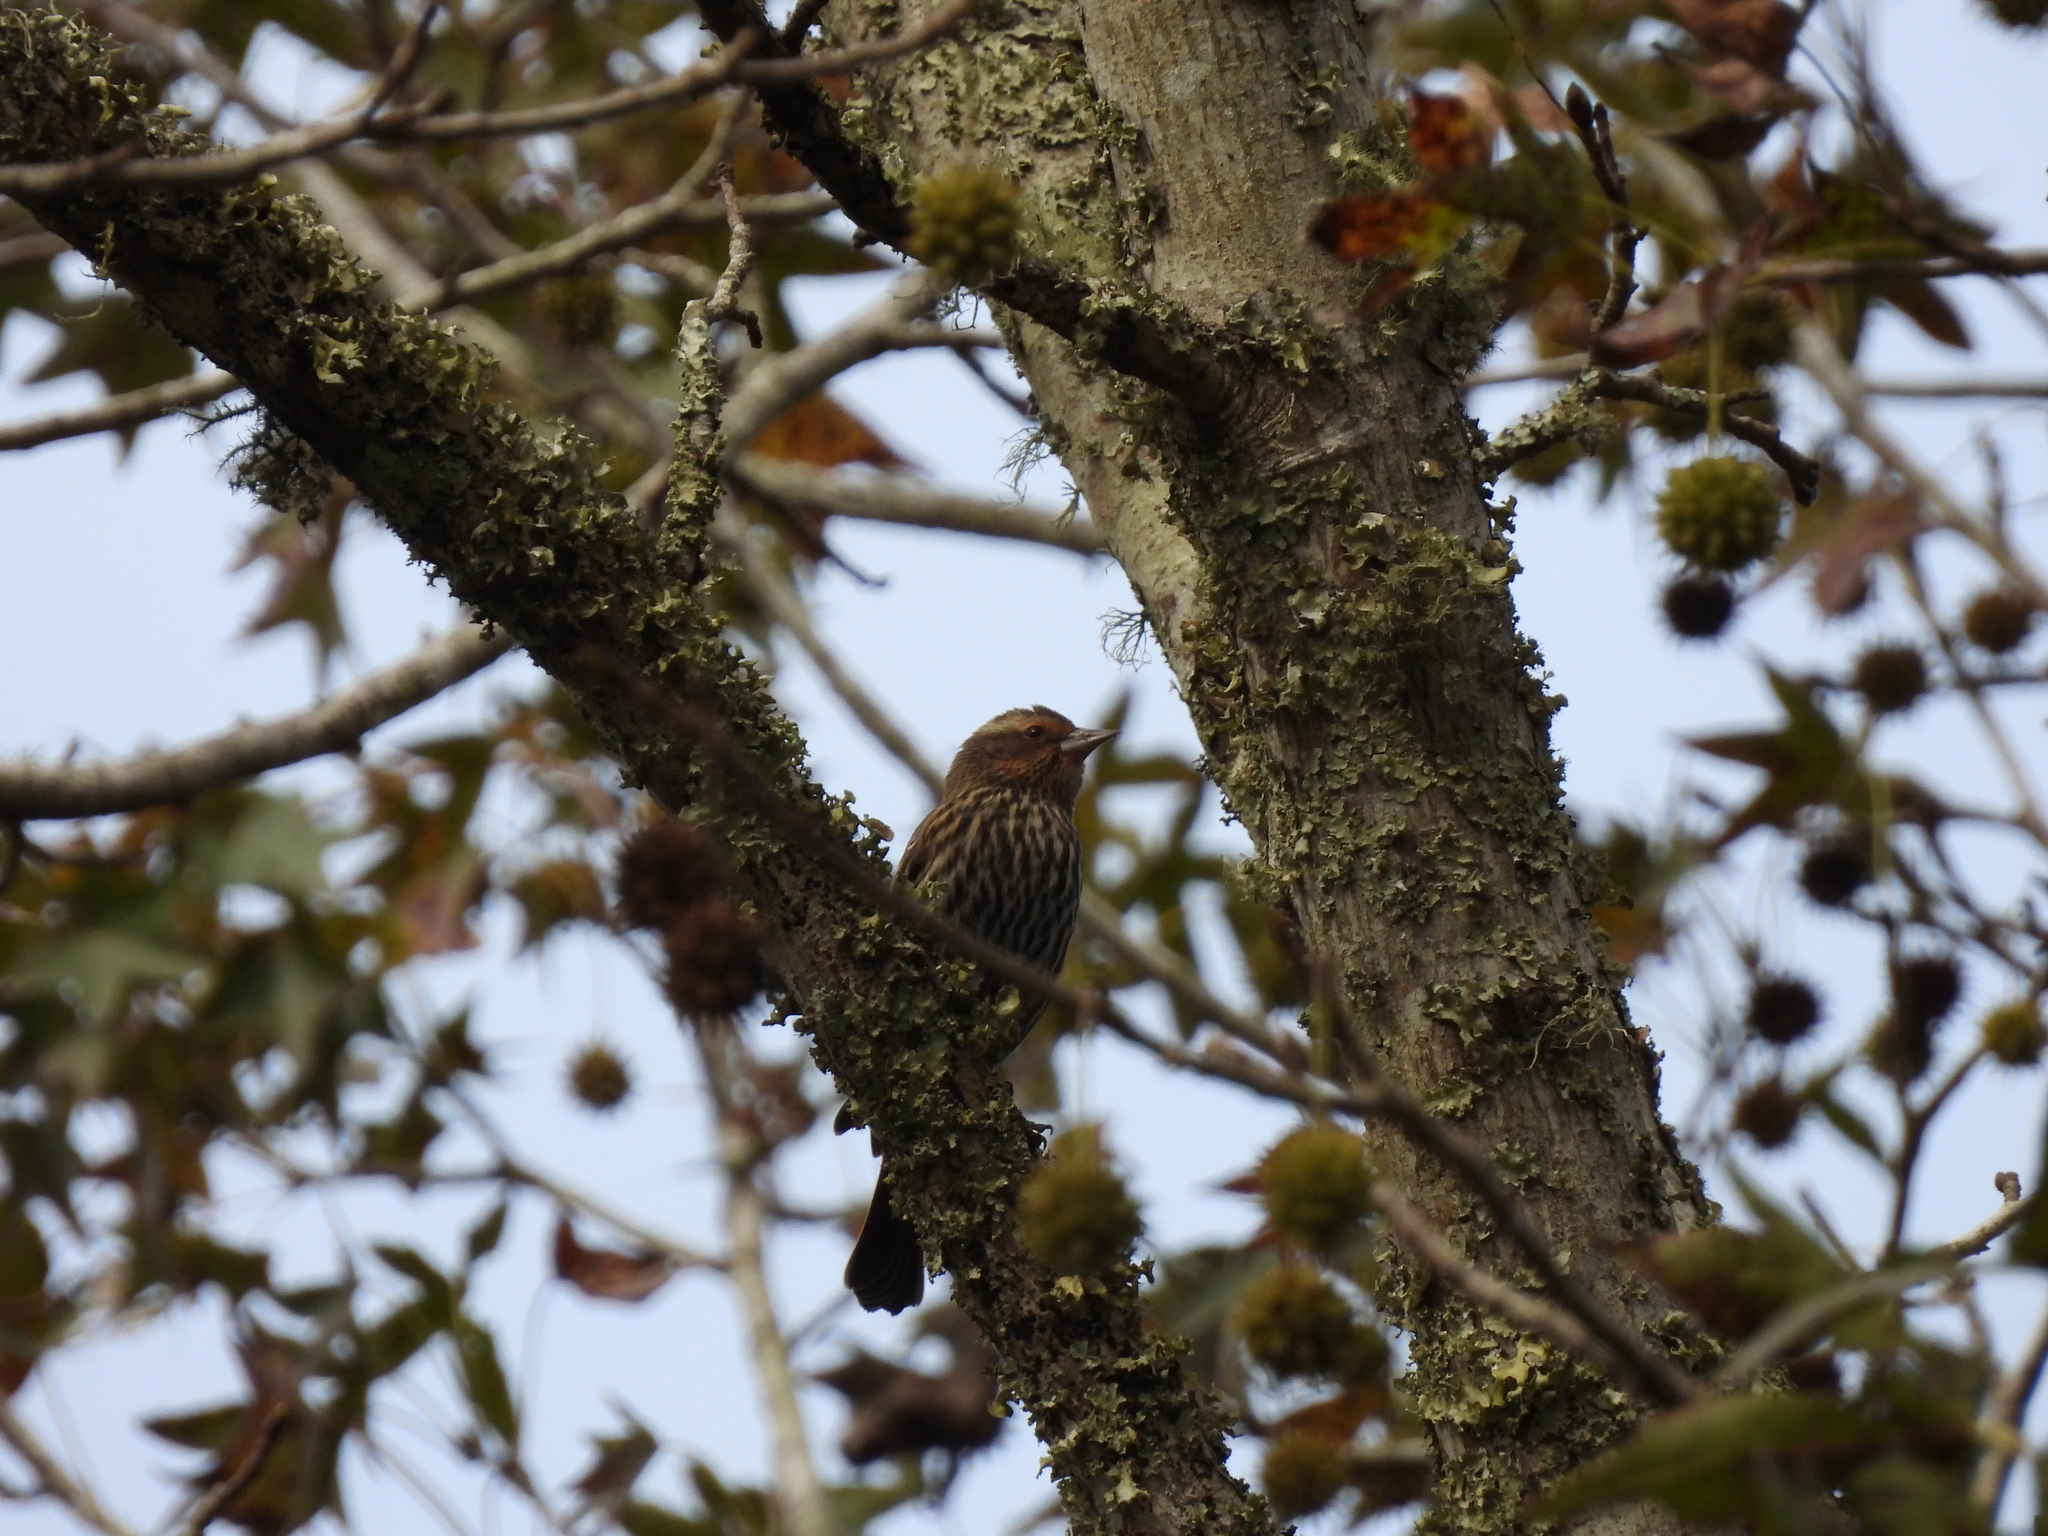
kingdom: Animalia
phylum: Chordata
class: Aves
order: Passeriformes
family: Icteridae
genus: Agelaius
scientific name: Agelaius phoeniceus
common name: Red-winged blackbird
